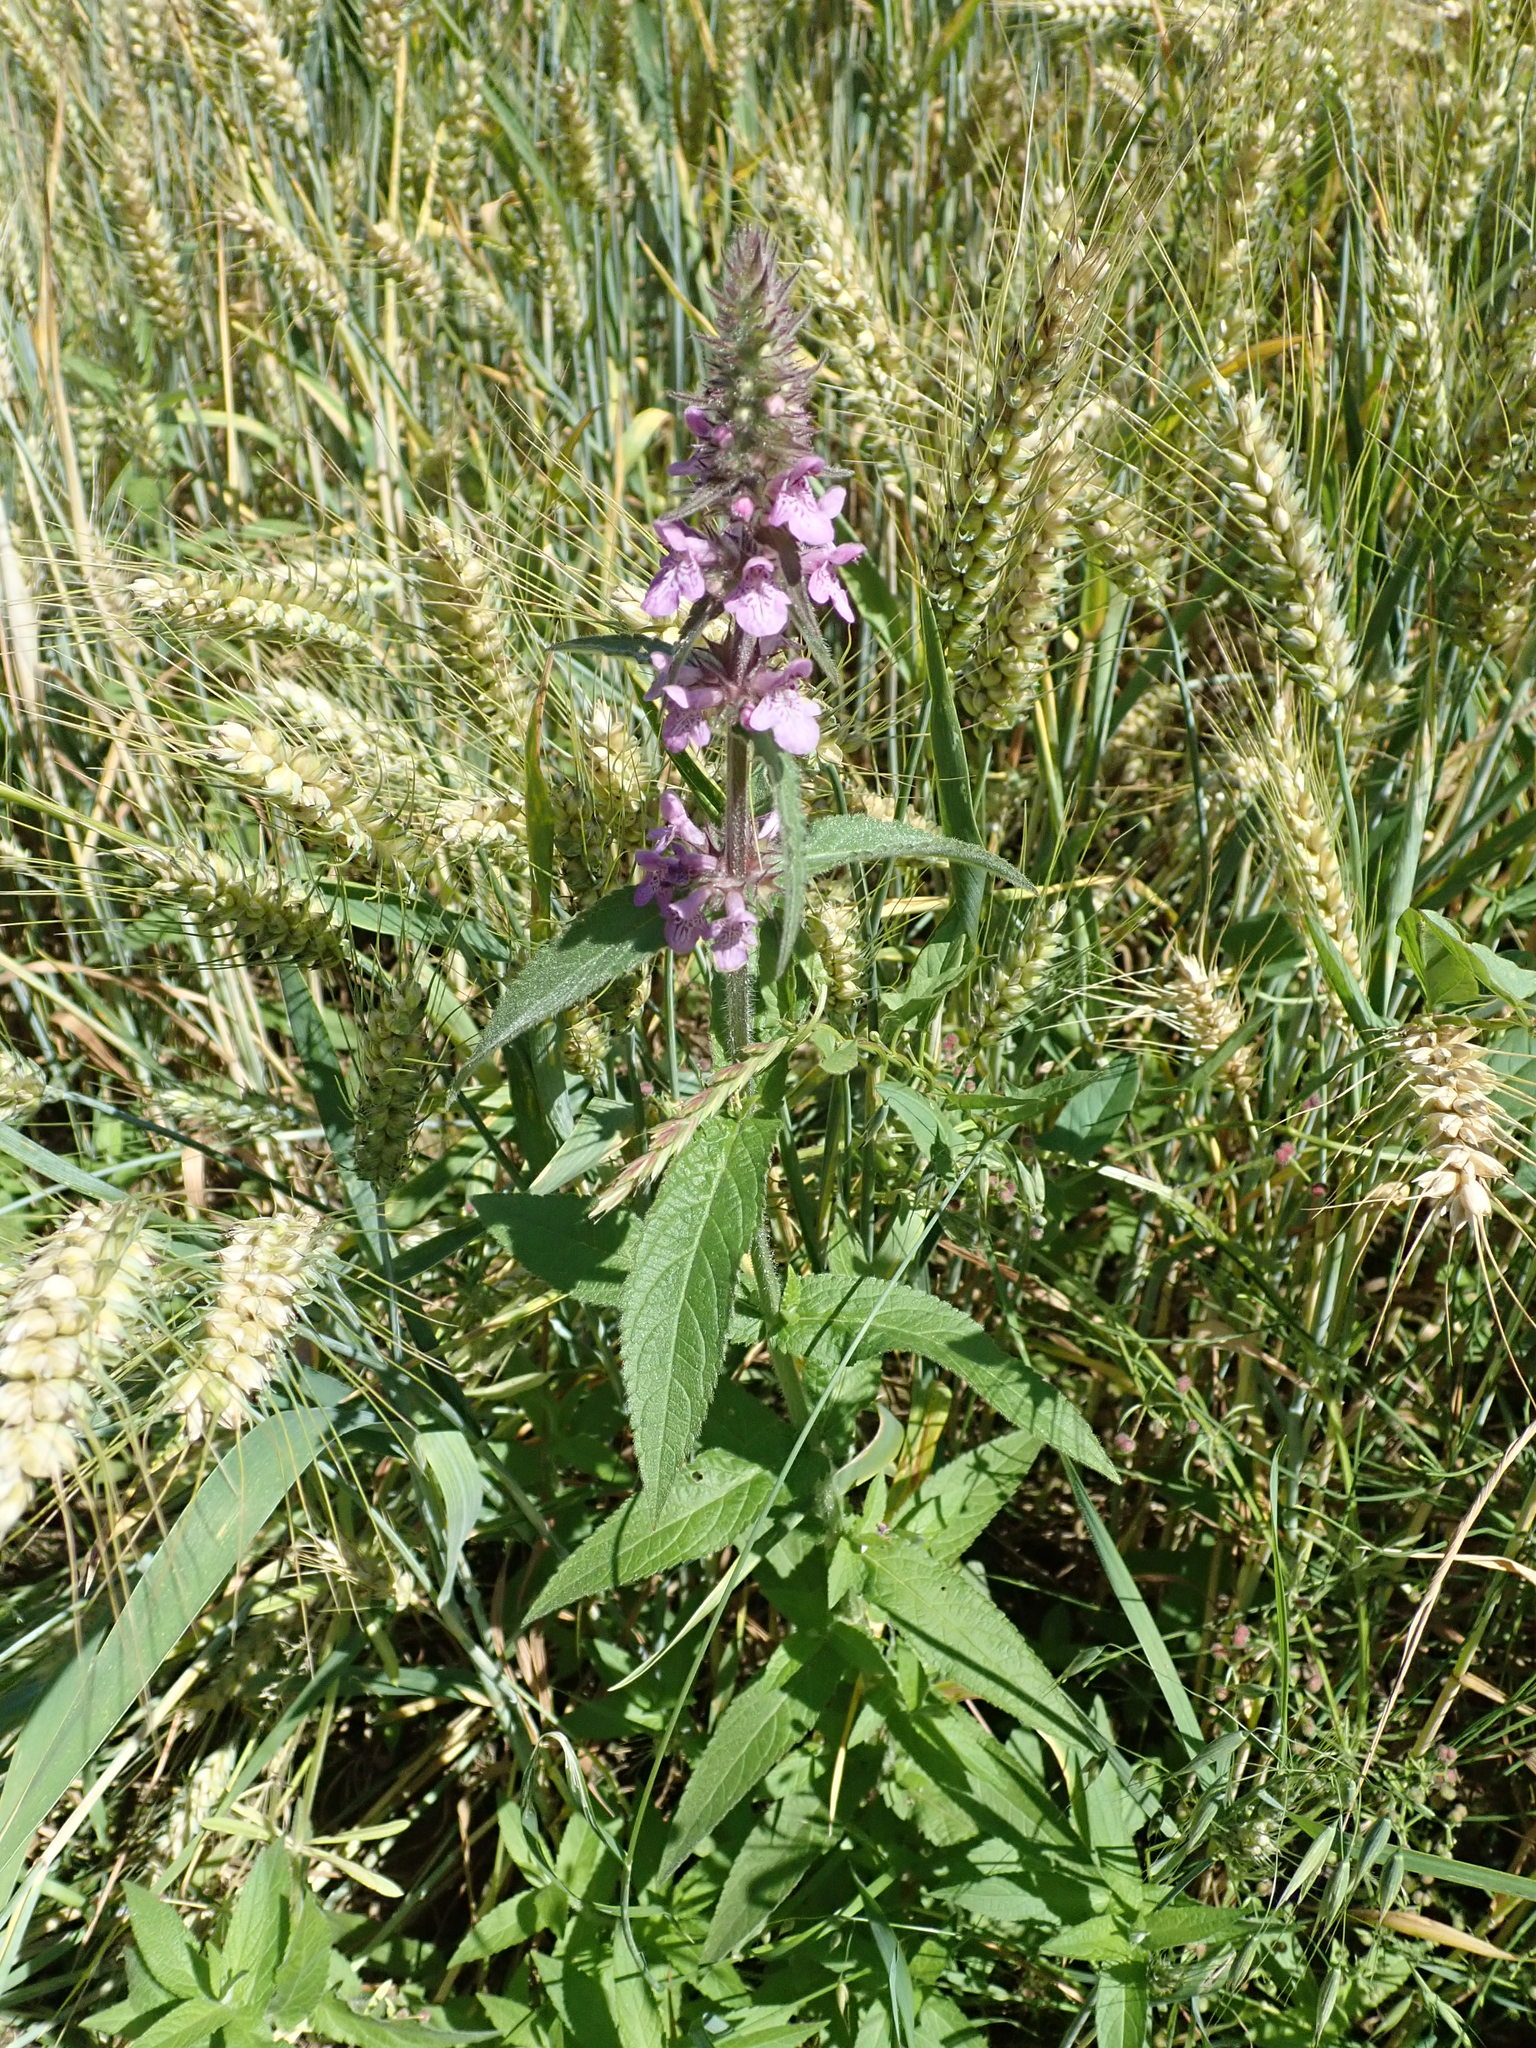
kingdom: Plantae
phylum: Tracheophyta
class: Magnoliopsida
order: Lamiales
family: Lamiaceae
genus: Stachys
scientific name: Stachys palustris
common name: Marsh woundwort
